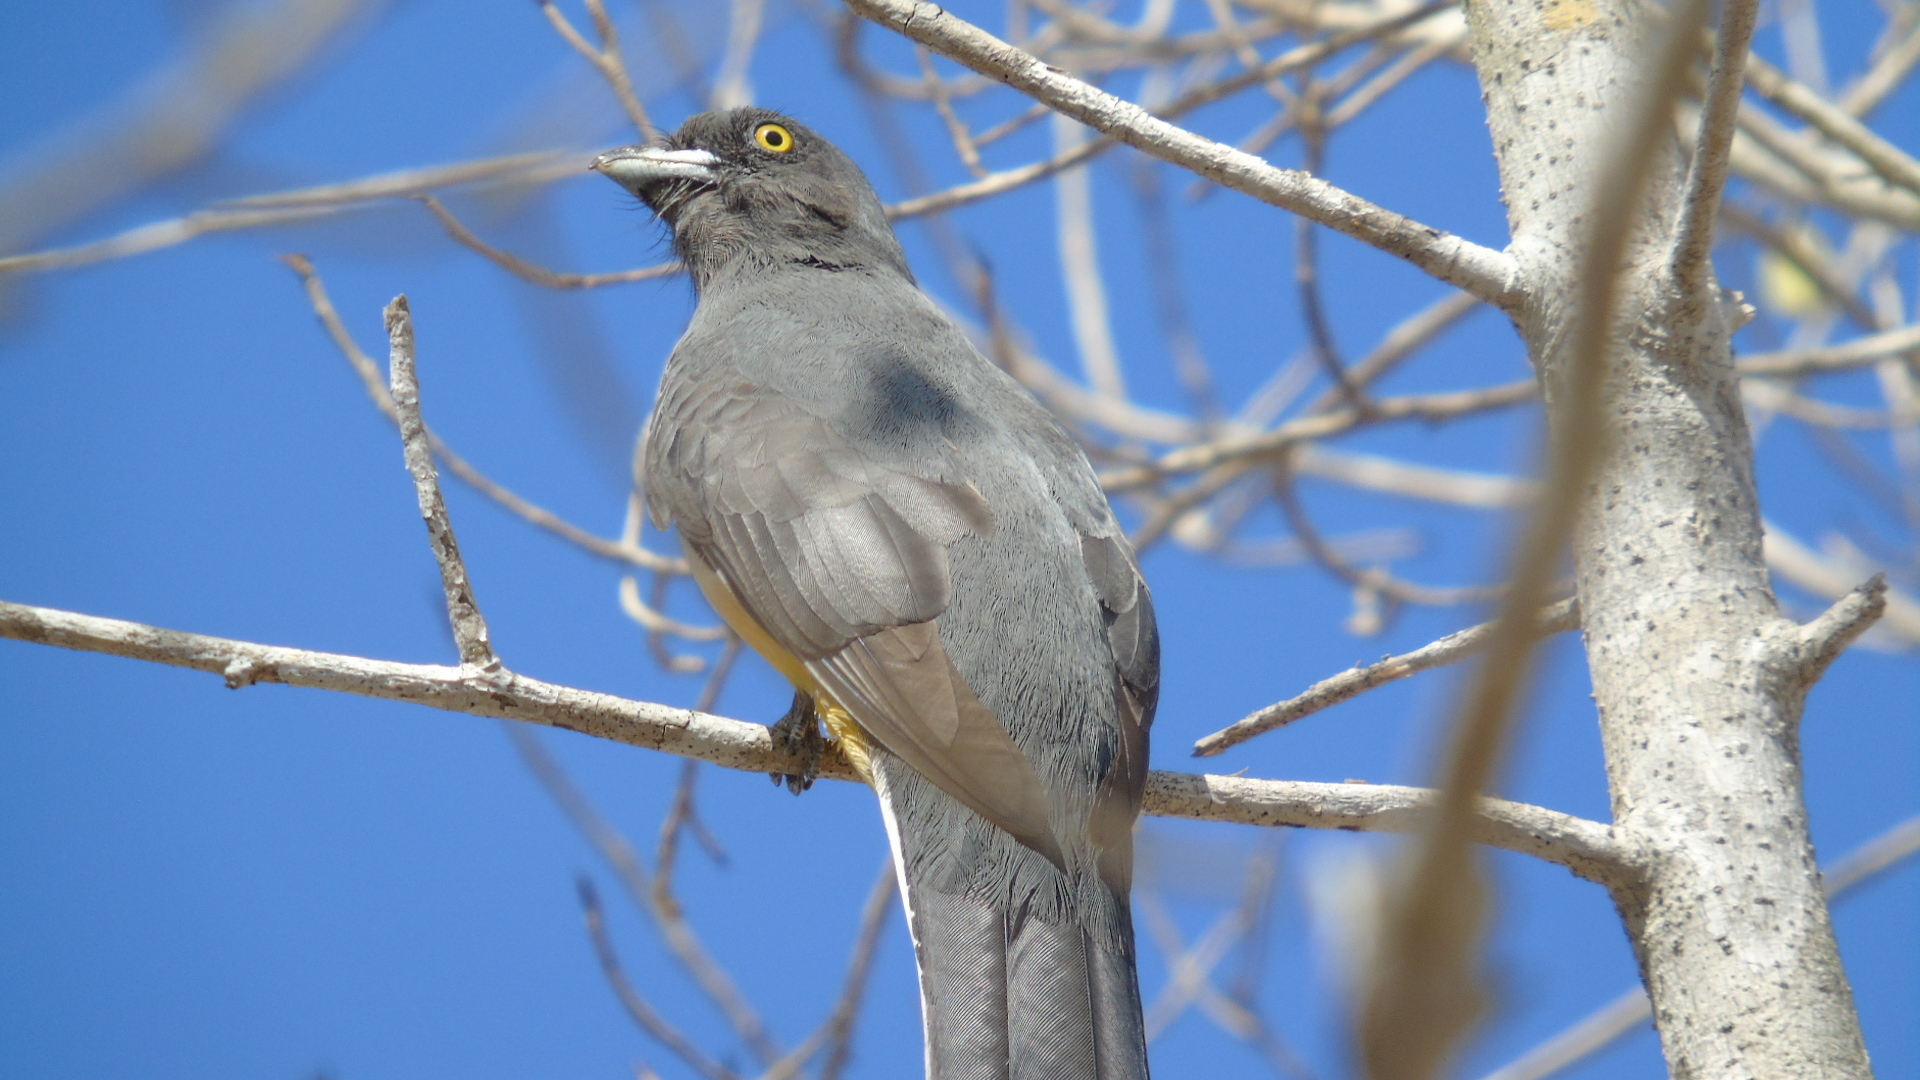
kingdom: Animalia
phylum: Chordata
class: Aves
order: Trogoniformes
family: Trogonidae
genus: Trogon
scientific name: Trogon citreolus
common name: Citreoline trogon
